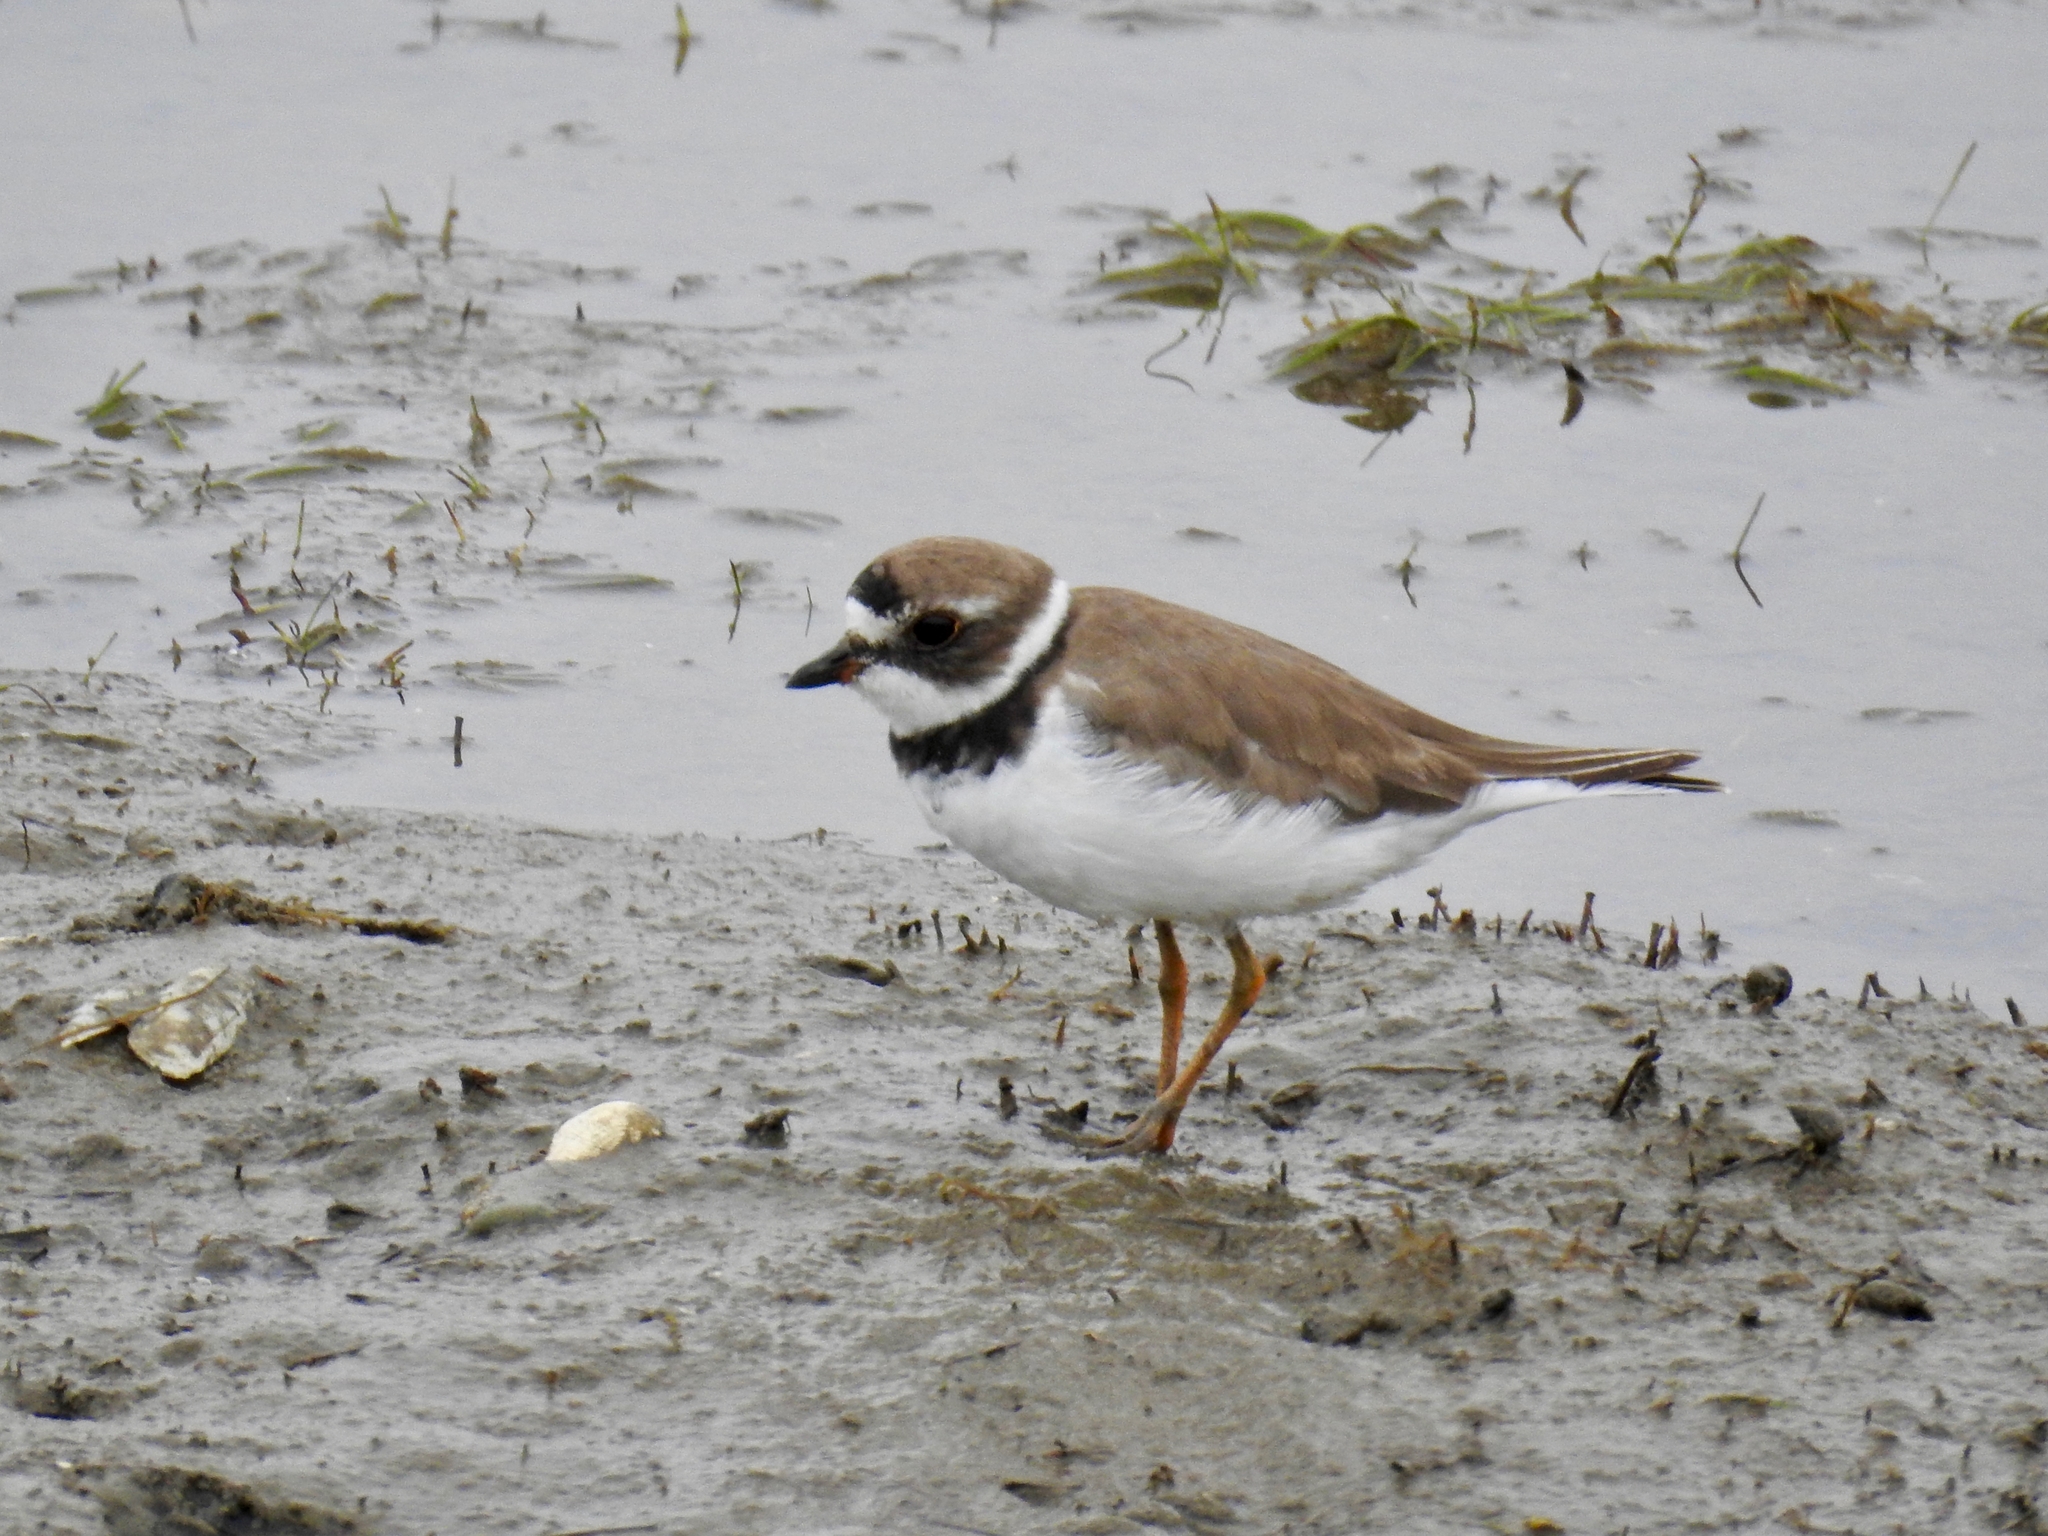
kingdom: Animalia
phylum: Chordata
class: Aves
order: Charadriiformes
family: Charadriidae
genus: Charadrius
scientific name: Charadrius semipalmatus
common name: Semipalmated plover
